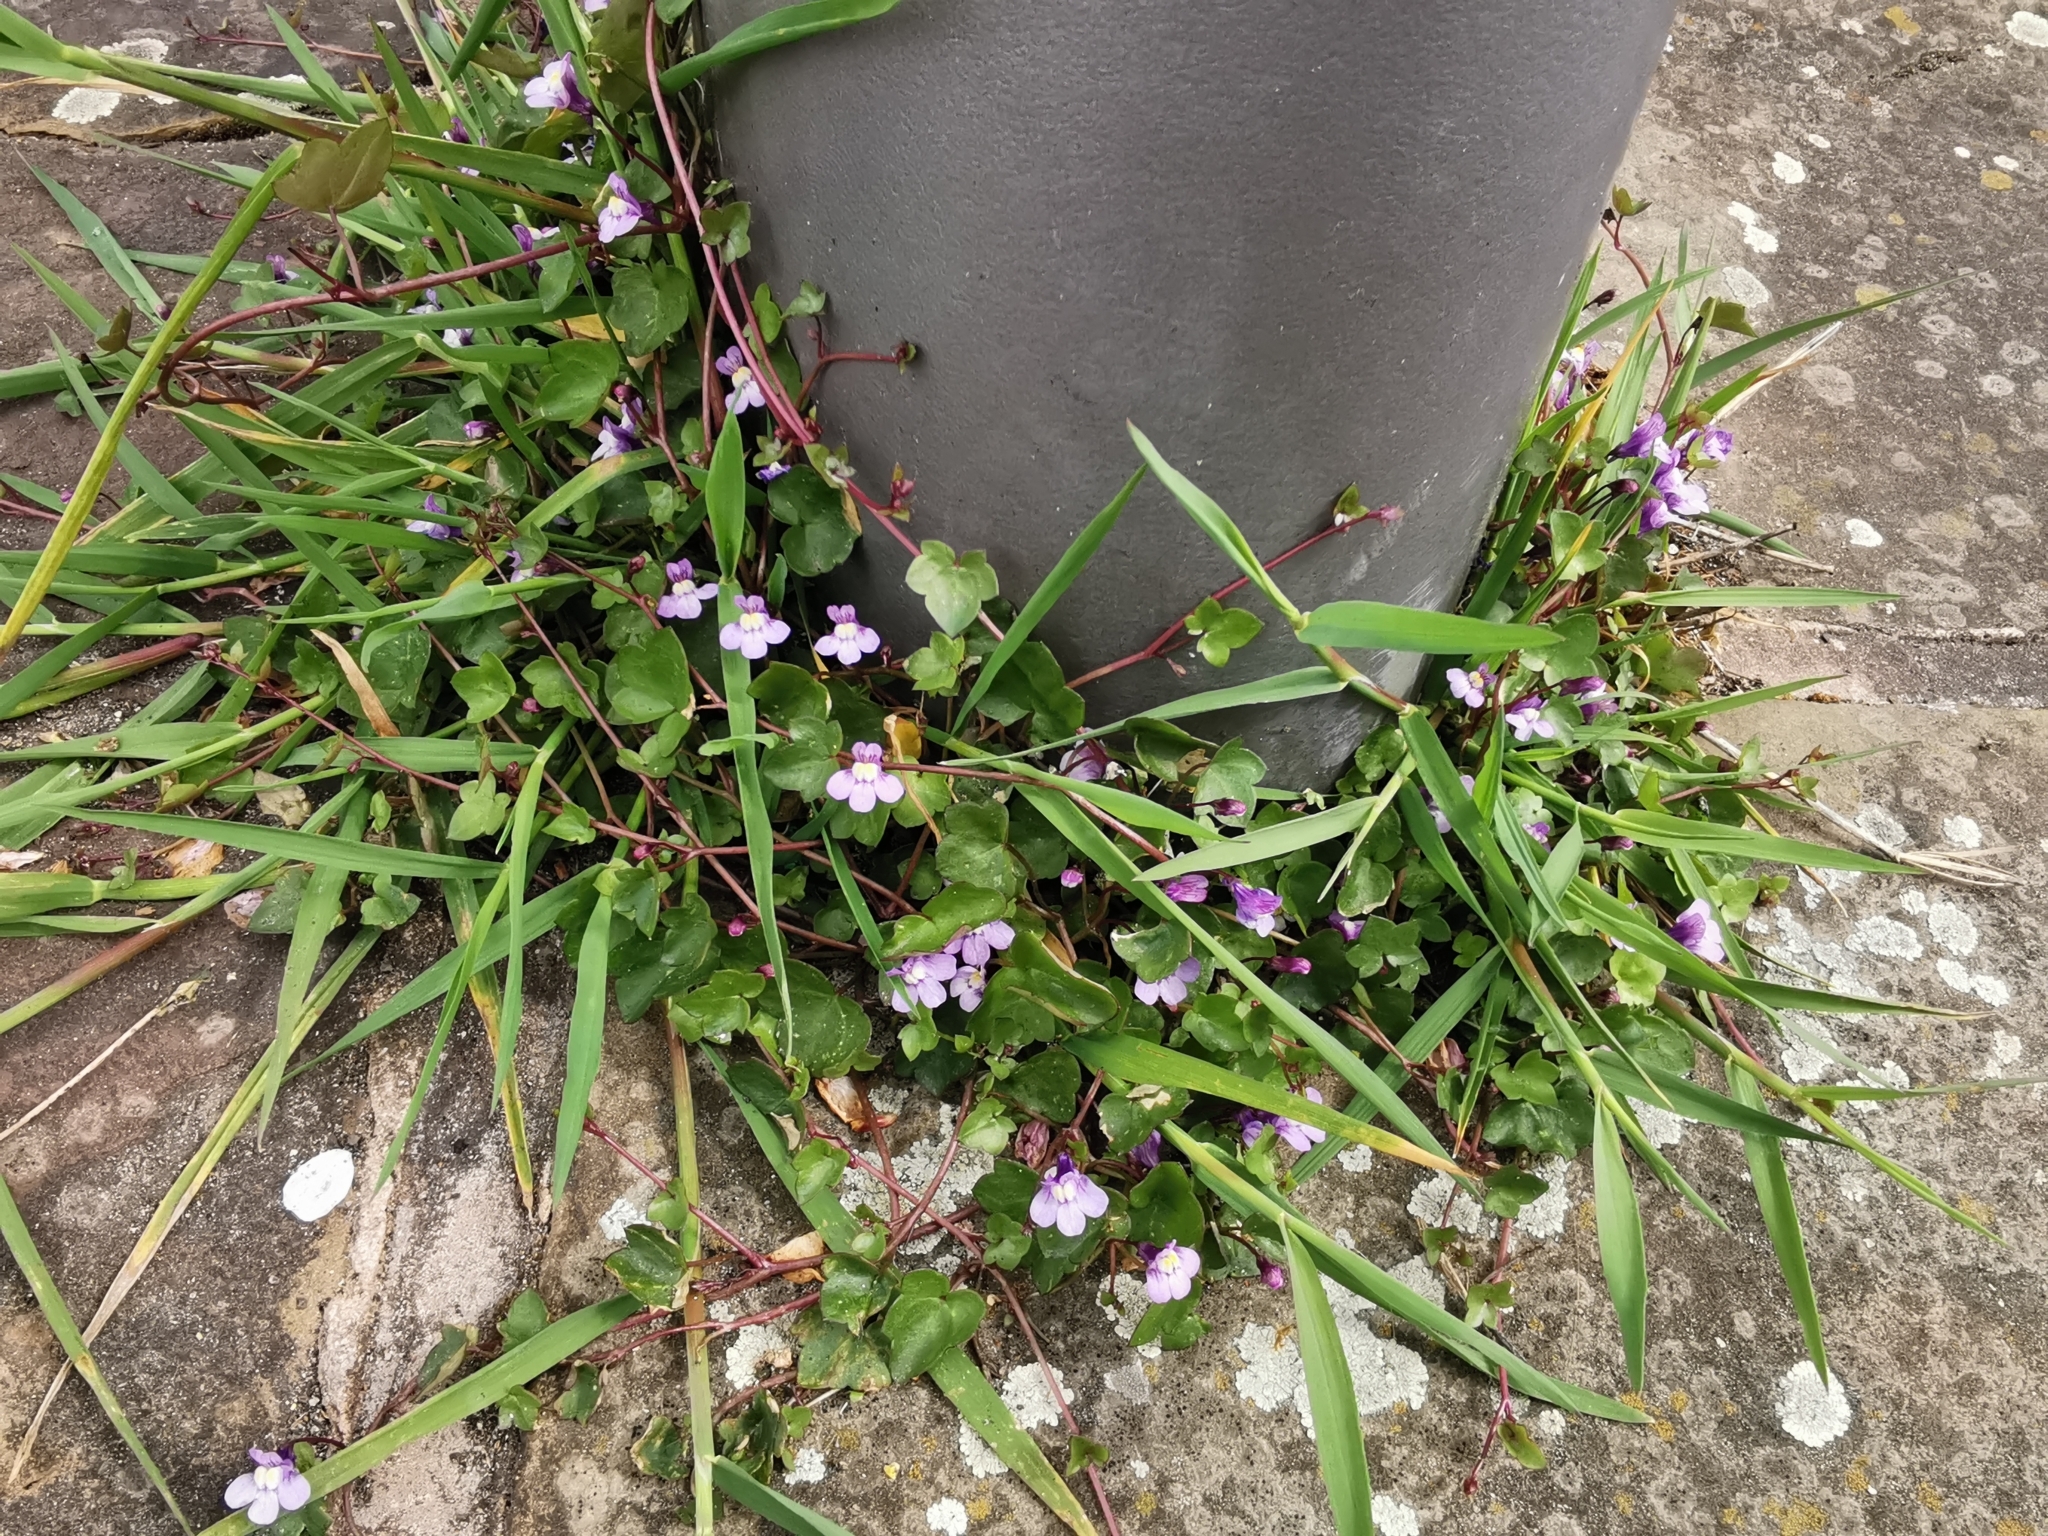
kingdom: Plantae
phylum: Tracheophyta
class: Magnoliopsida
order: Lamiales
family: Plantaginaceae
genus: Cymbalaria
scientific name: Cymbalaria muralis
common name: Ivy-leaved toadflax
